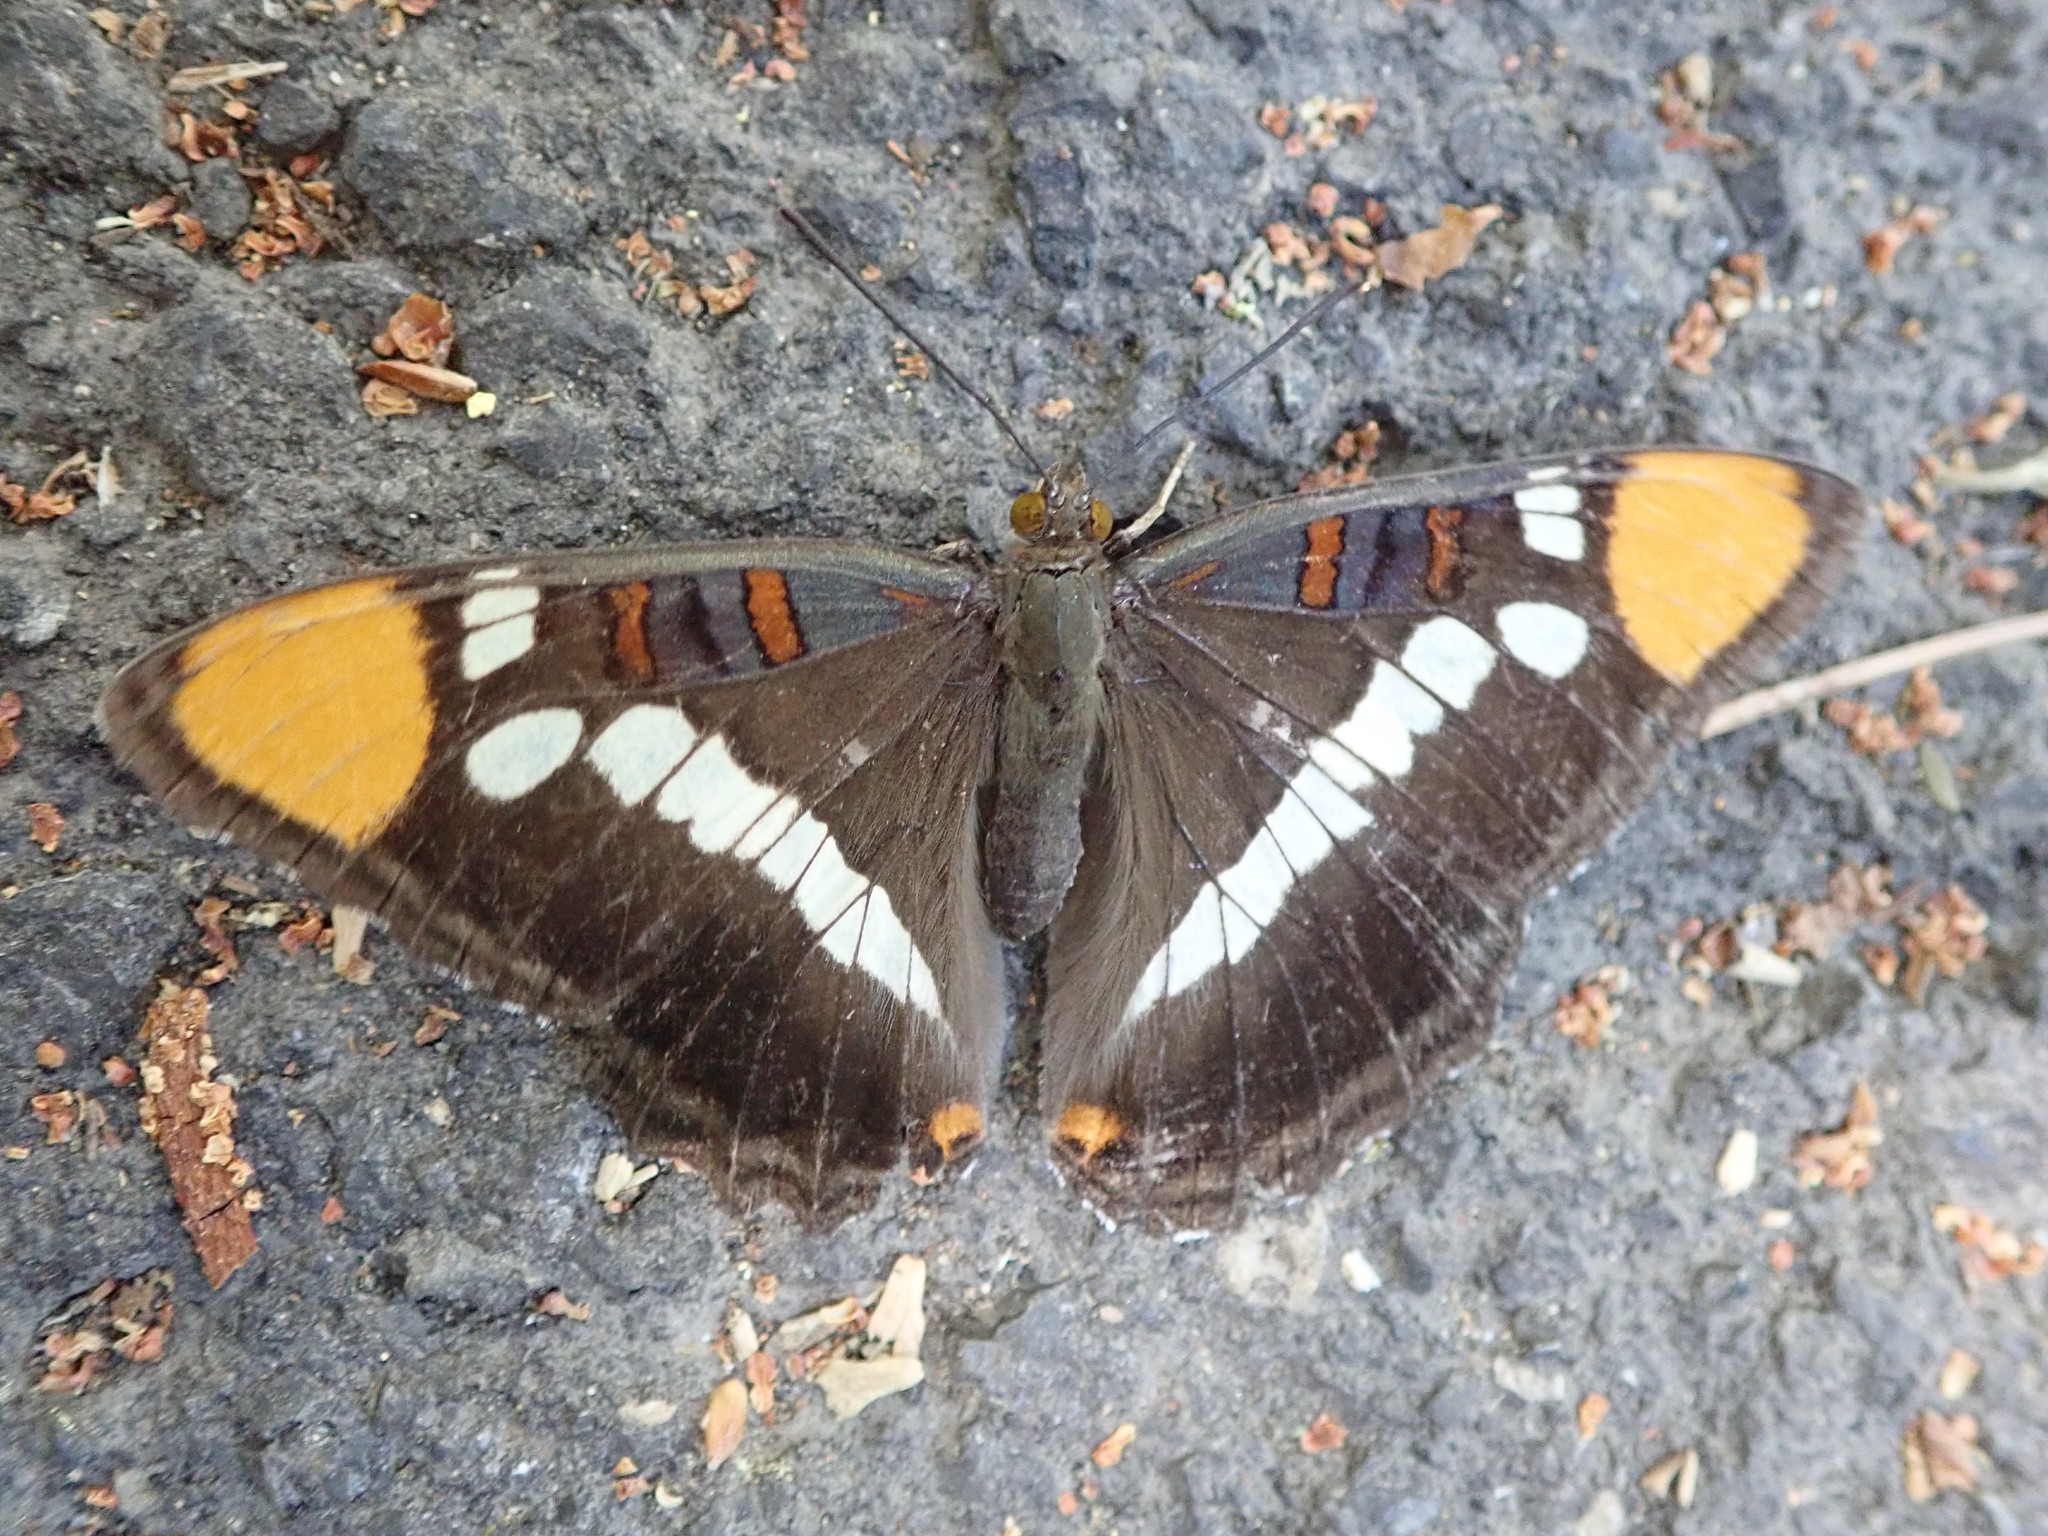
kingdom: Animalia
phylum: Arthropoda
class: Insecta
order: Lepidoptera
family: Nymphalidae
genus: Limenitis
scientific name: Limenitis bredowii
